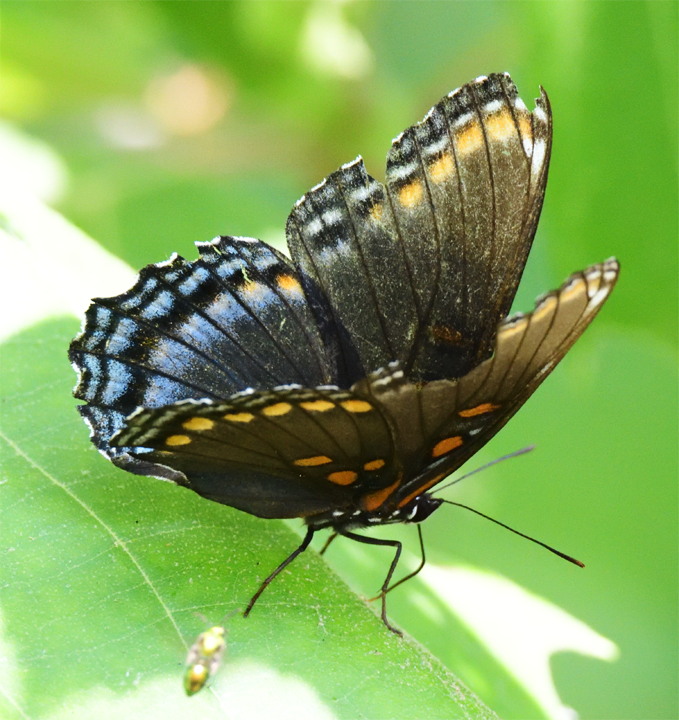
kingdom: Animalia
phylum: Arthropoda
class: Insecta
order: Lepidoptera
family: Nymphalidae
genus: Limenitis
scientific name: Limenitis arthemis
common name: Red-spotted admiral
